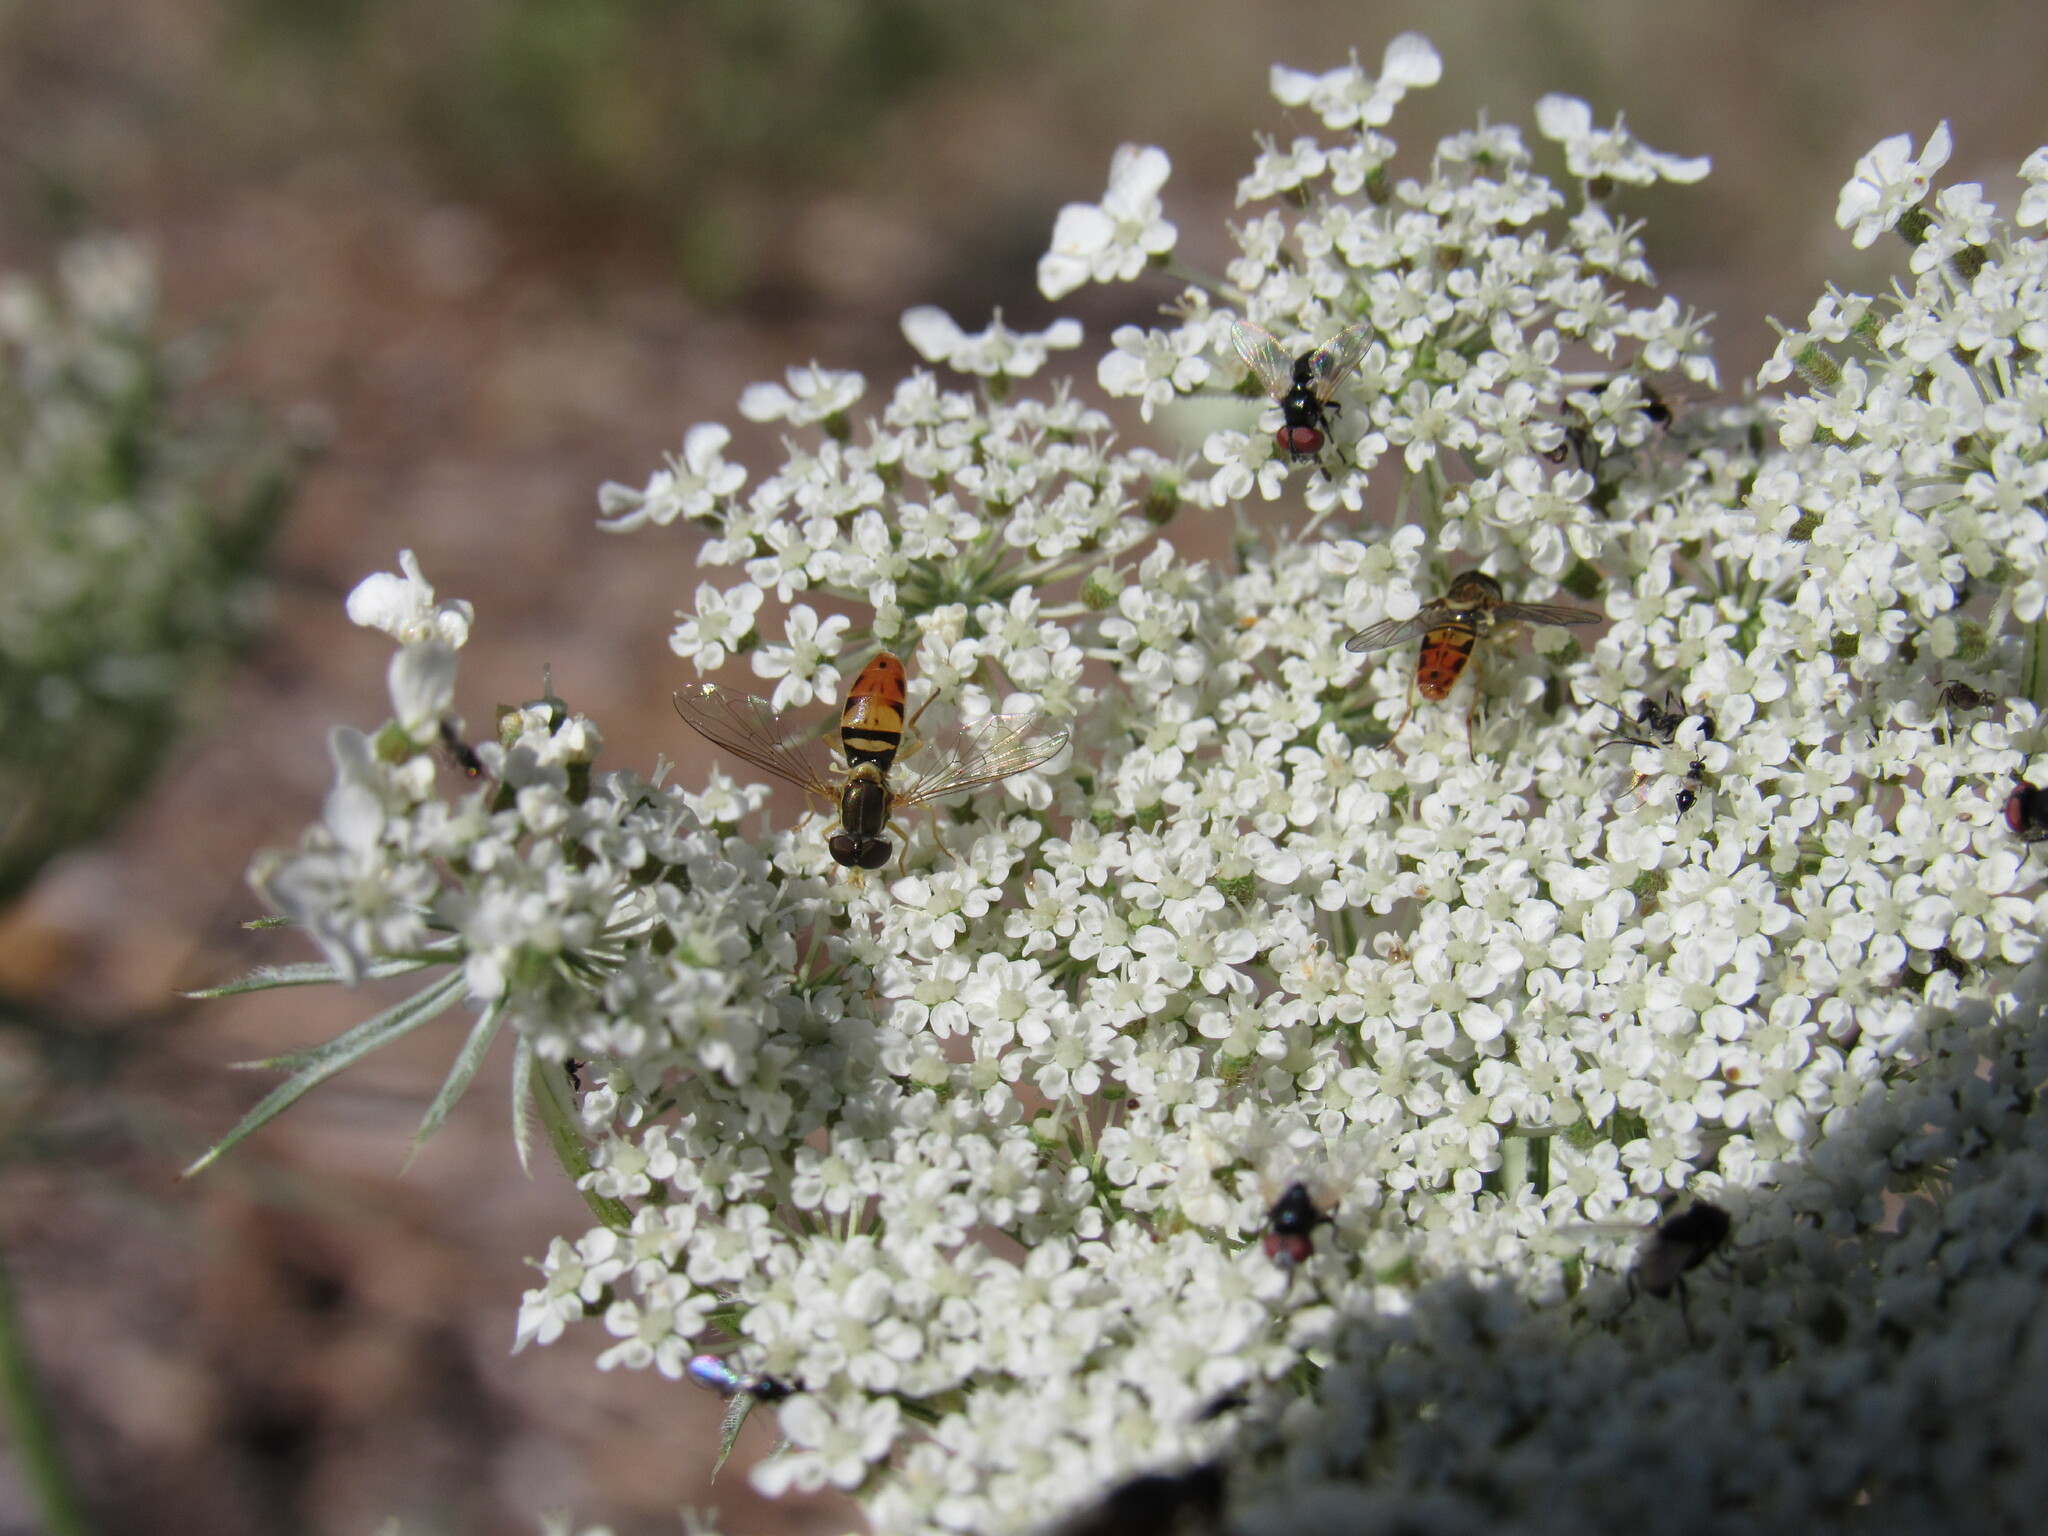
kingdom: Animalia
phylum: Arthropoda
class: Insecta
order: Diptera
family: Syrphidae
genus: Toxomerus
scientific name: Toxomerus marginatus
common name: Syrphid fly
